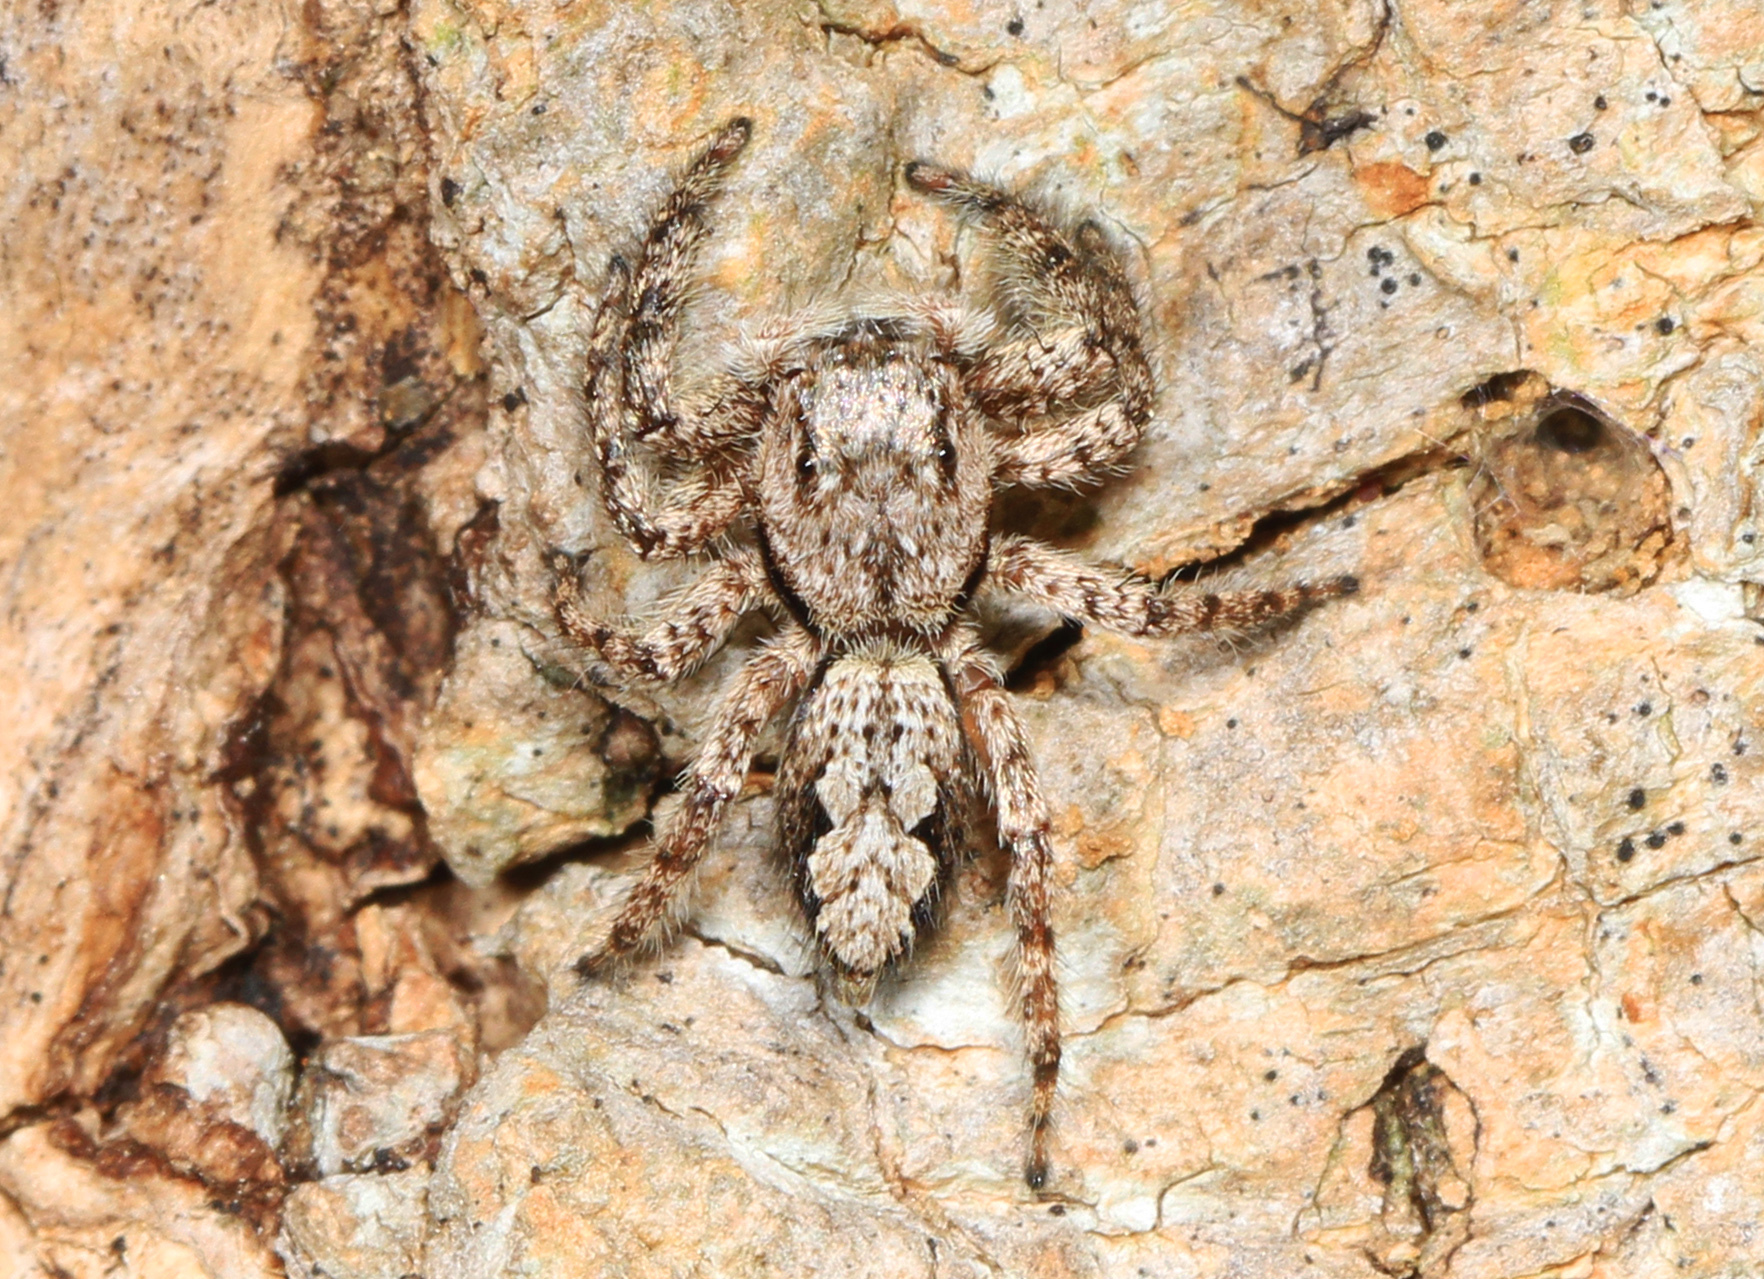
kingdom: Animalia
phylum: Arthropoda
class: Arachnida
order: Araneae
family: Salticidae
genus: Platycryptus
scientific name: Platycryptus undatus
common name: Tan jumping spider
